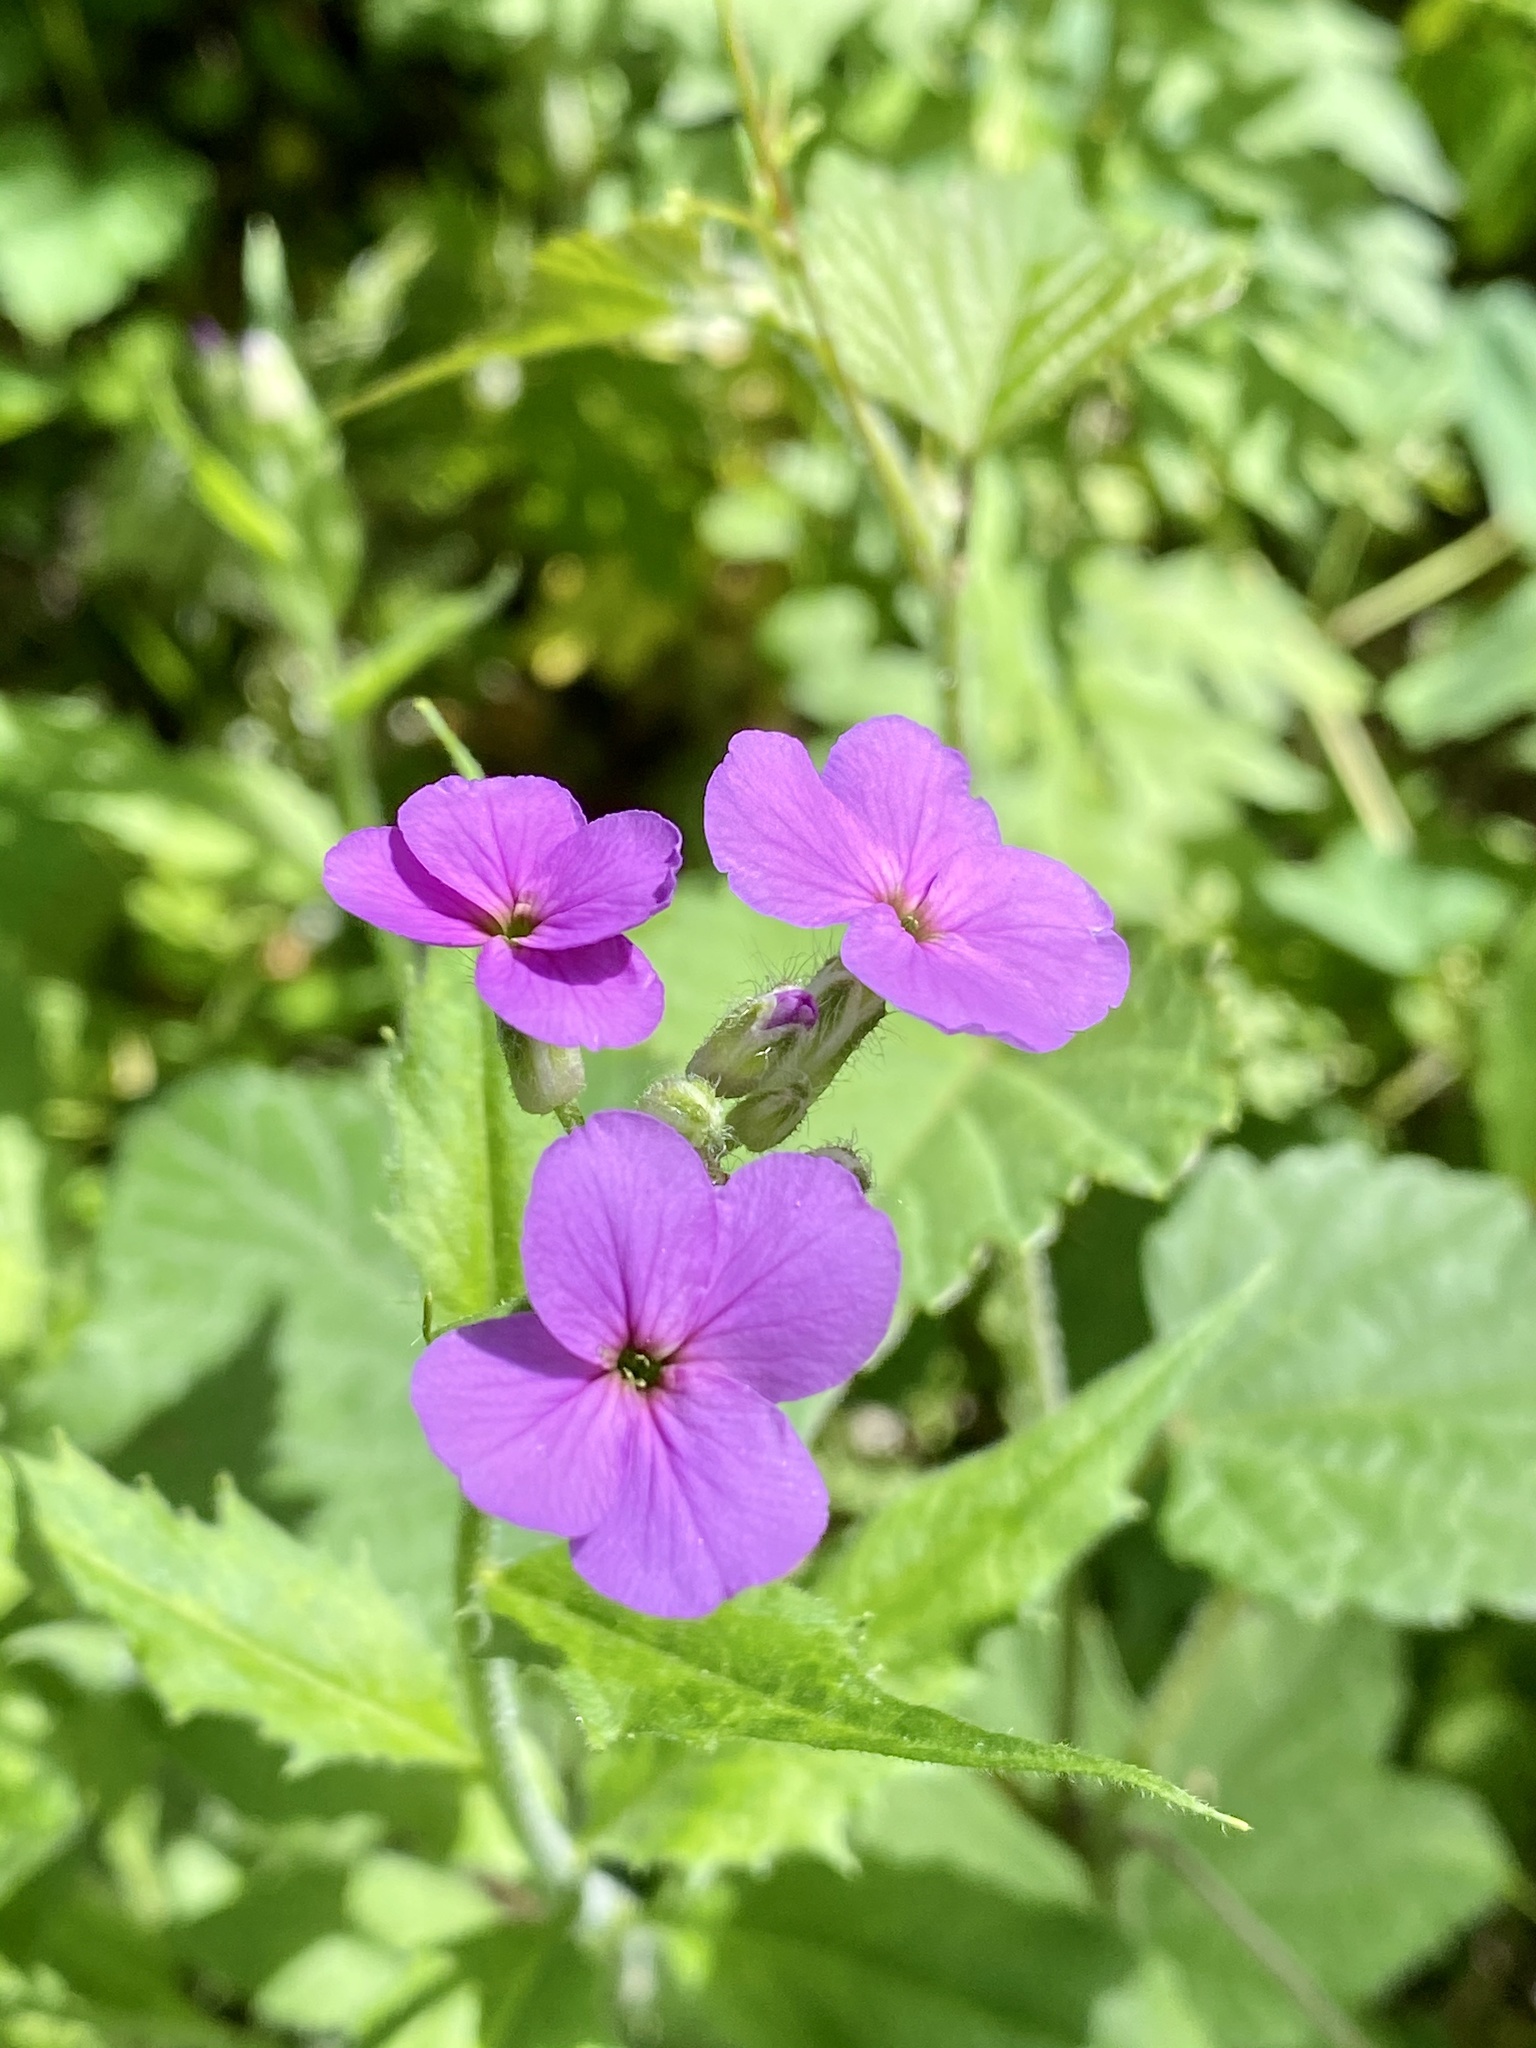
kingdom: Plantae
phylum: Tracheophyta
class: Magnoliopsida
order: Brassicales
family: Brassicaceae
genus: Hesperis
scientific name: Hesperis matronalis
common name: Dame's-violet
